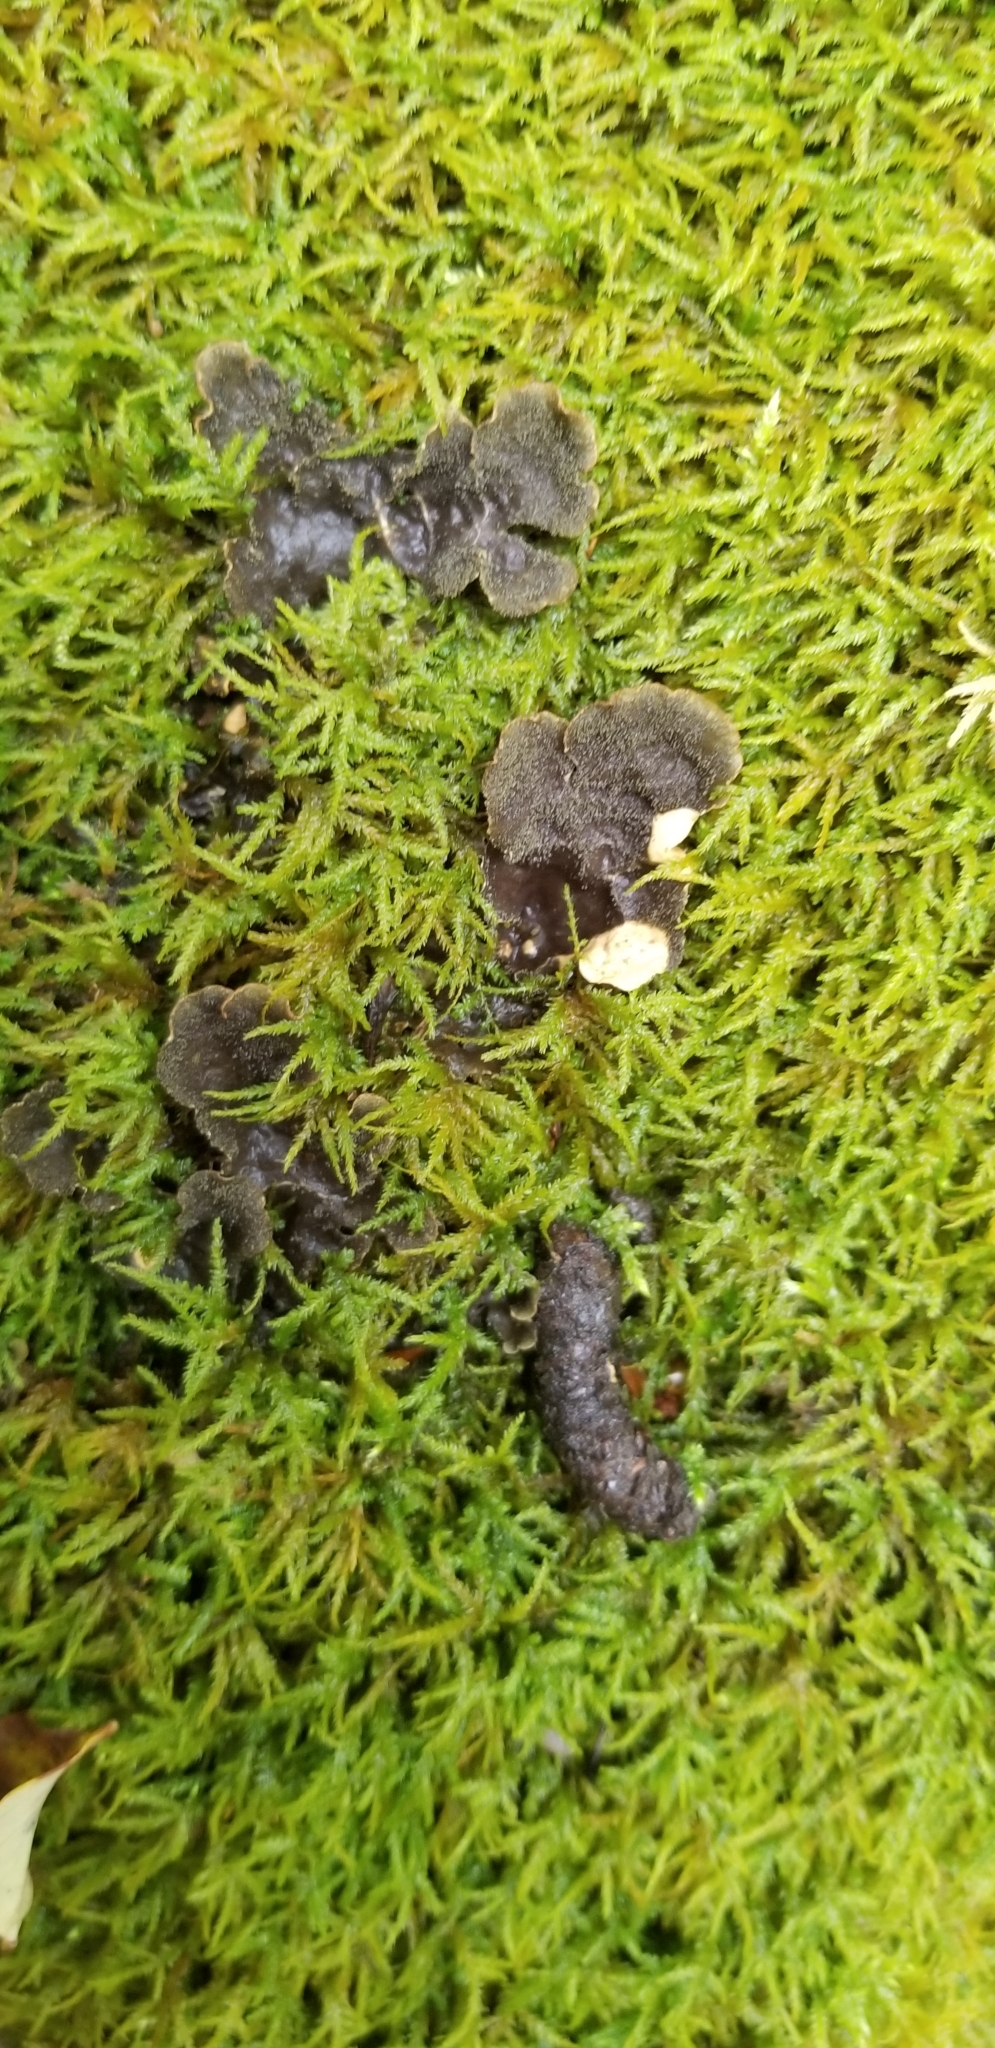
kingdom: Plantae
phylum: Bryophyta
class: Bryopsida
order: Hypnales
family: Neckeraceae
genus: Pseudanomodon
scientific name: Pseudanomodon attenuatus
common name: Tree-skirt moss
